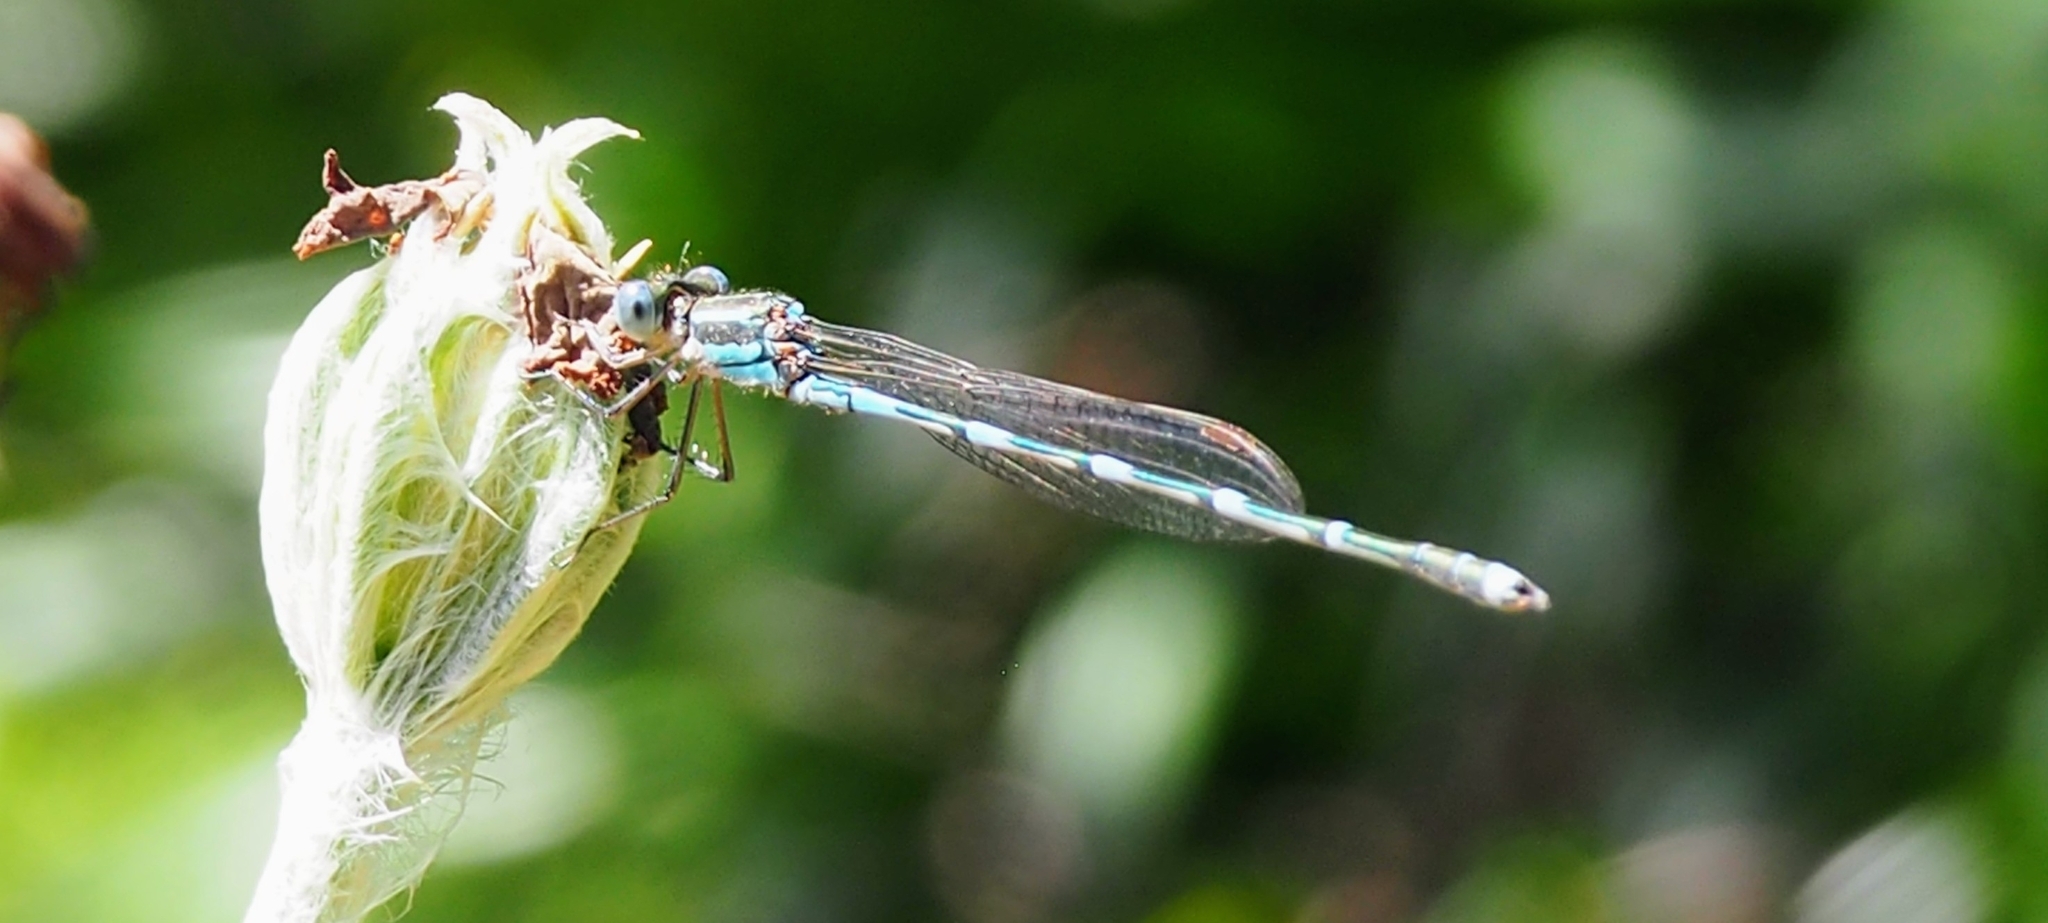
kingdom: Animalia
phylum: Arthropoda
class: Insecta
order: Odonata
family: Lestidae
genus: Austrolestes
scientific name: Austrolestes leda
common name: Wandering ringtail
